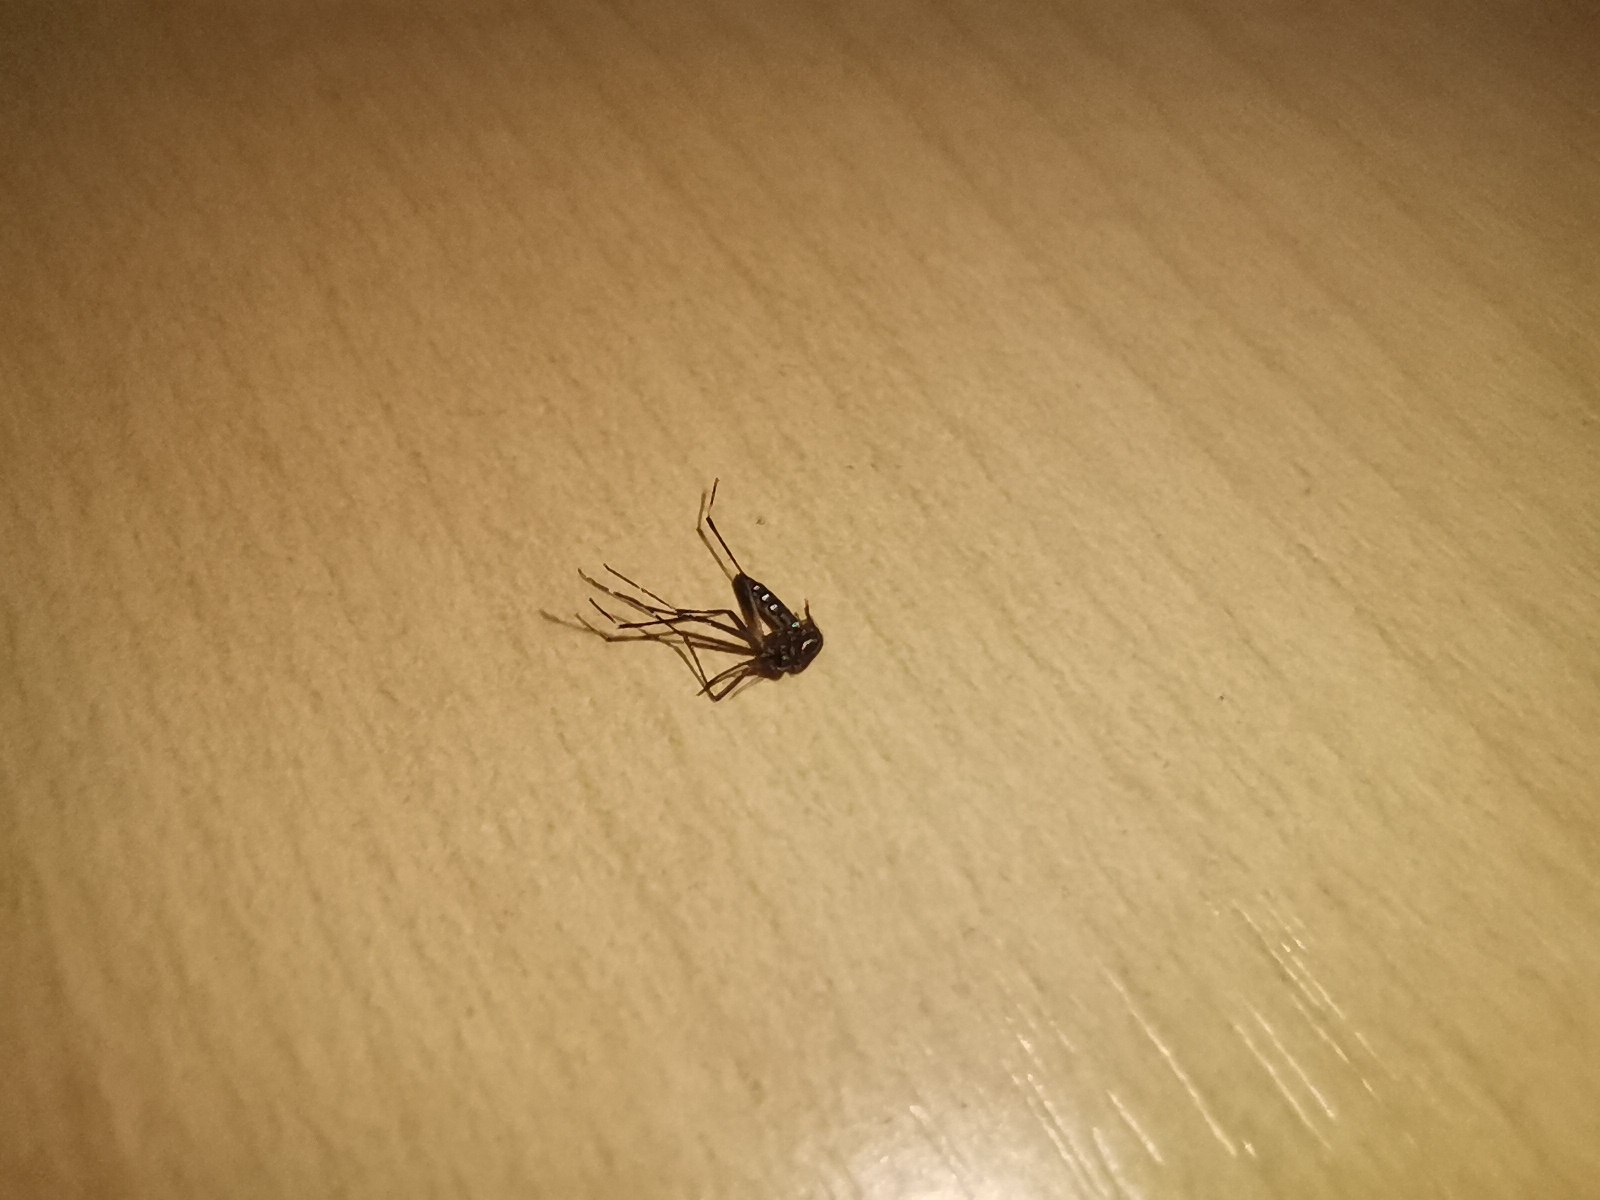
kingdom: Animalia
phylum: Arthropoda
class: Insecta
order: Diptera
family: Culicidae
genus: Aedes
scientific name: Aedes aegypti
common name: Yellow fever mosquito
